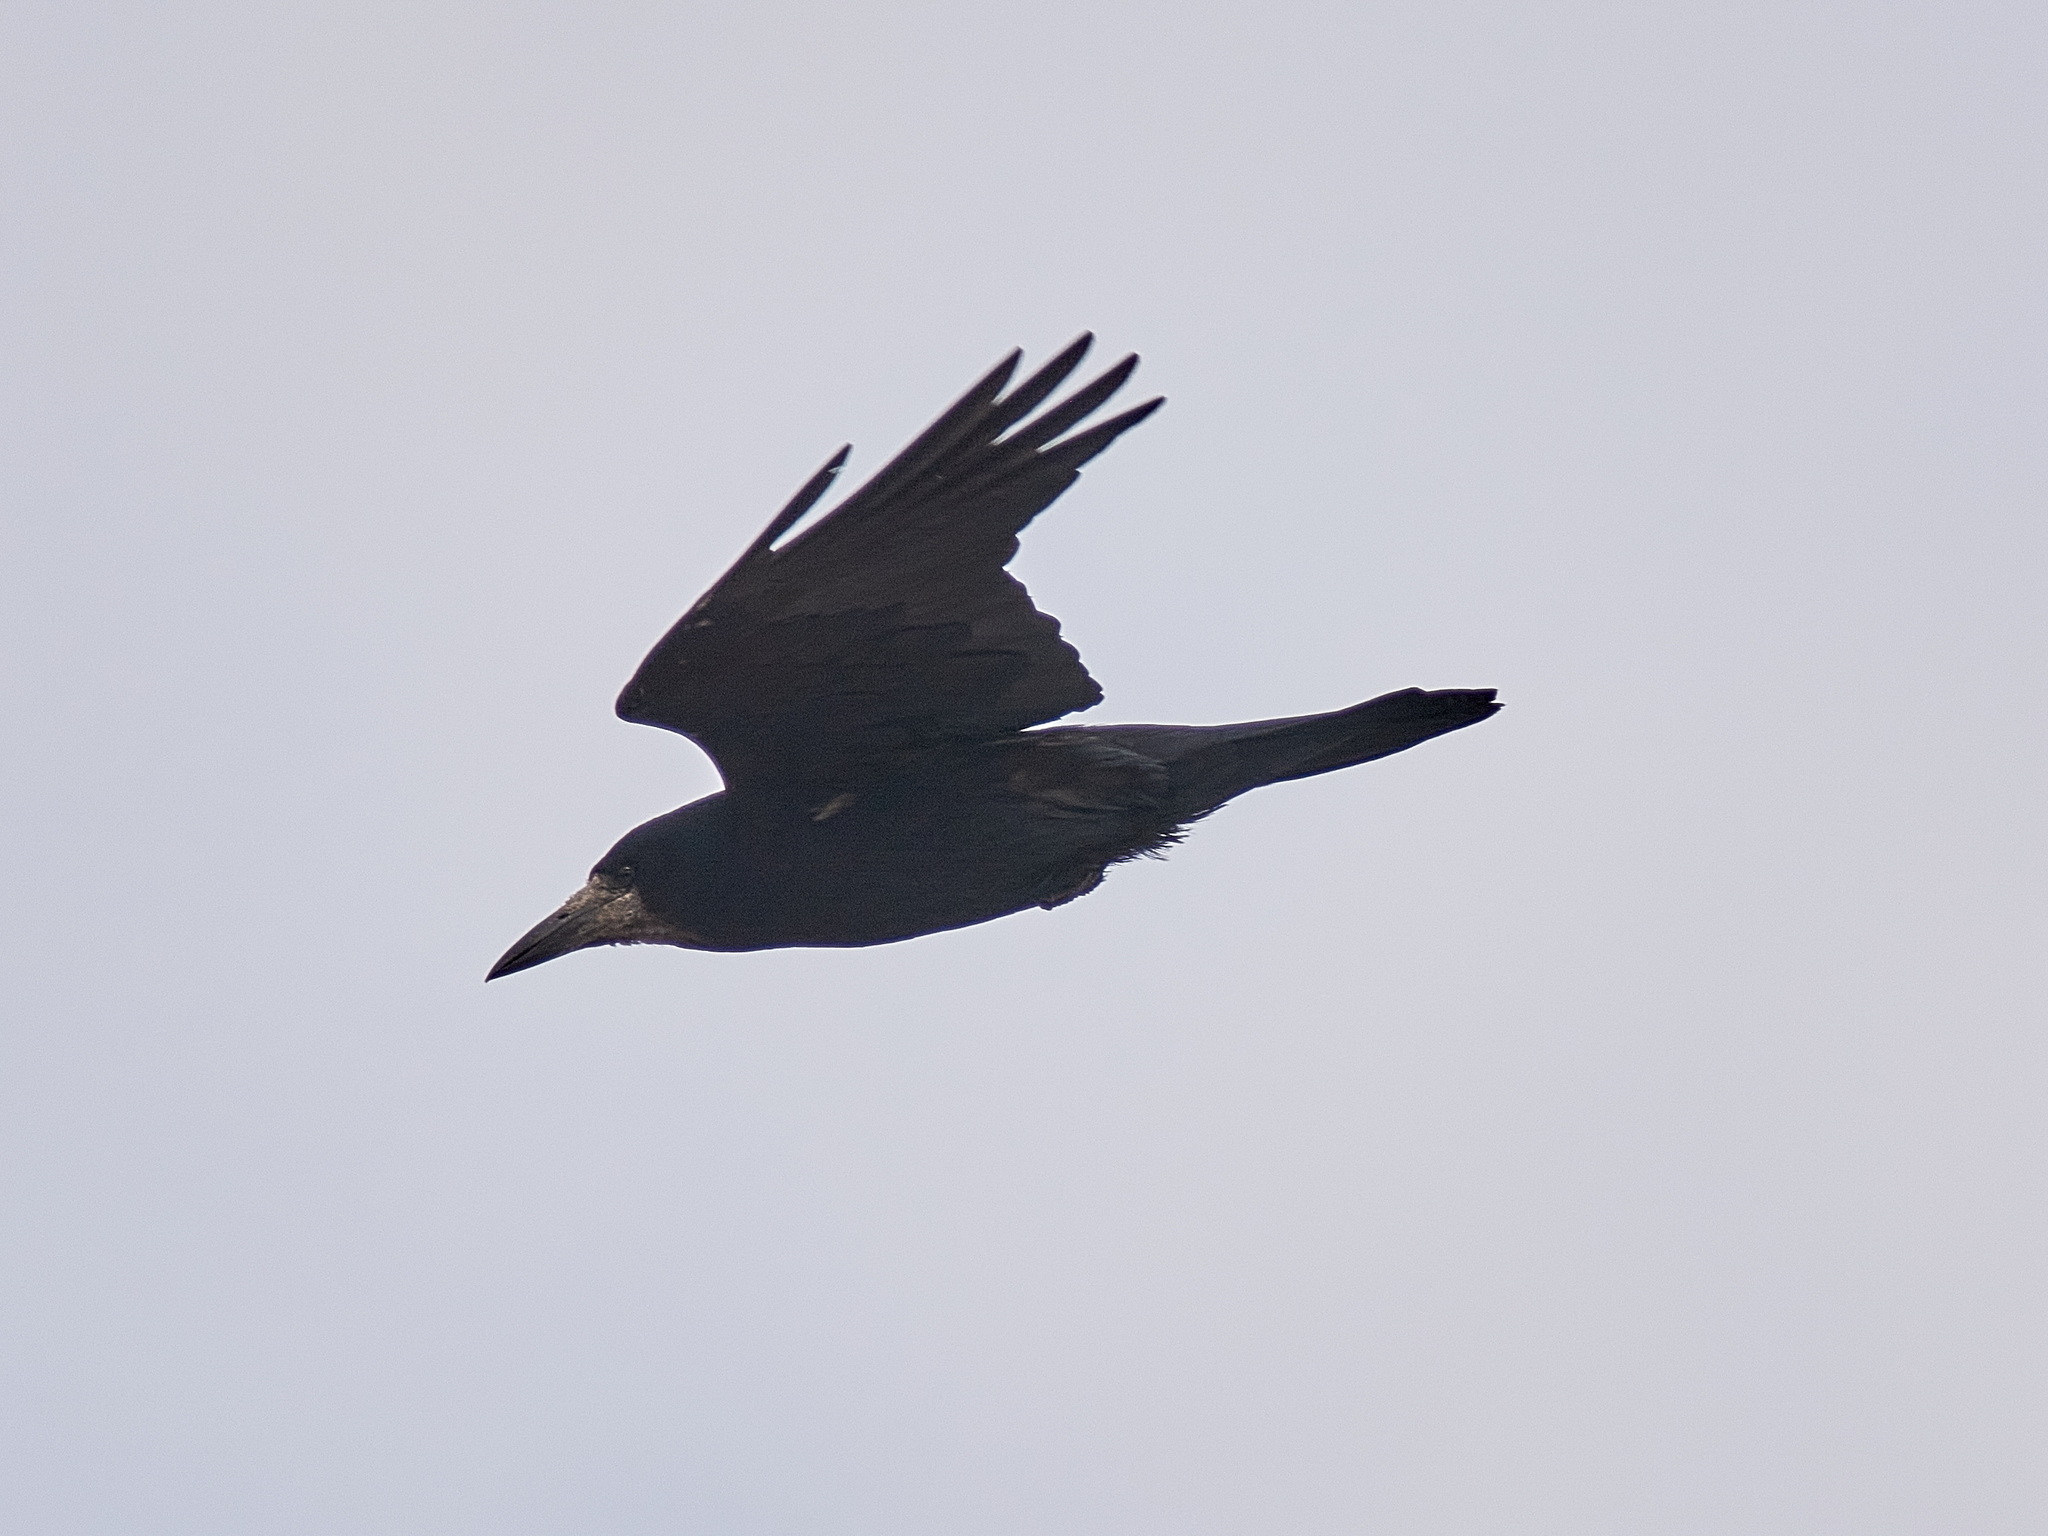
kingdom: Animalia
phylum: Chordata
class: Aves
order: Passeriformes
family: Corvidae
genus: Corvus
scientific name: Corvus frugilegus
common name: Rook
